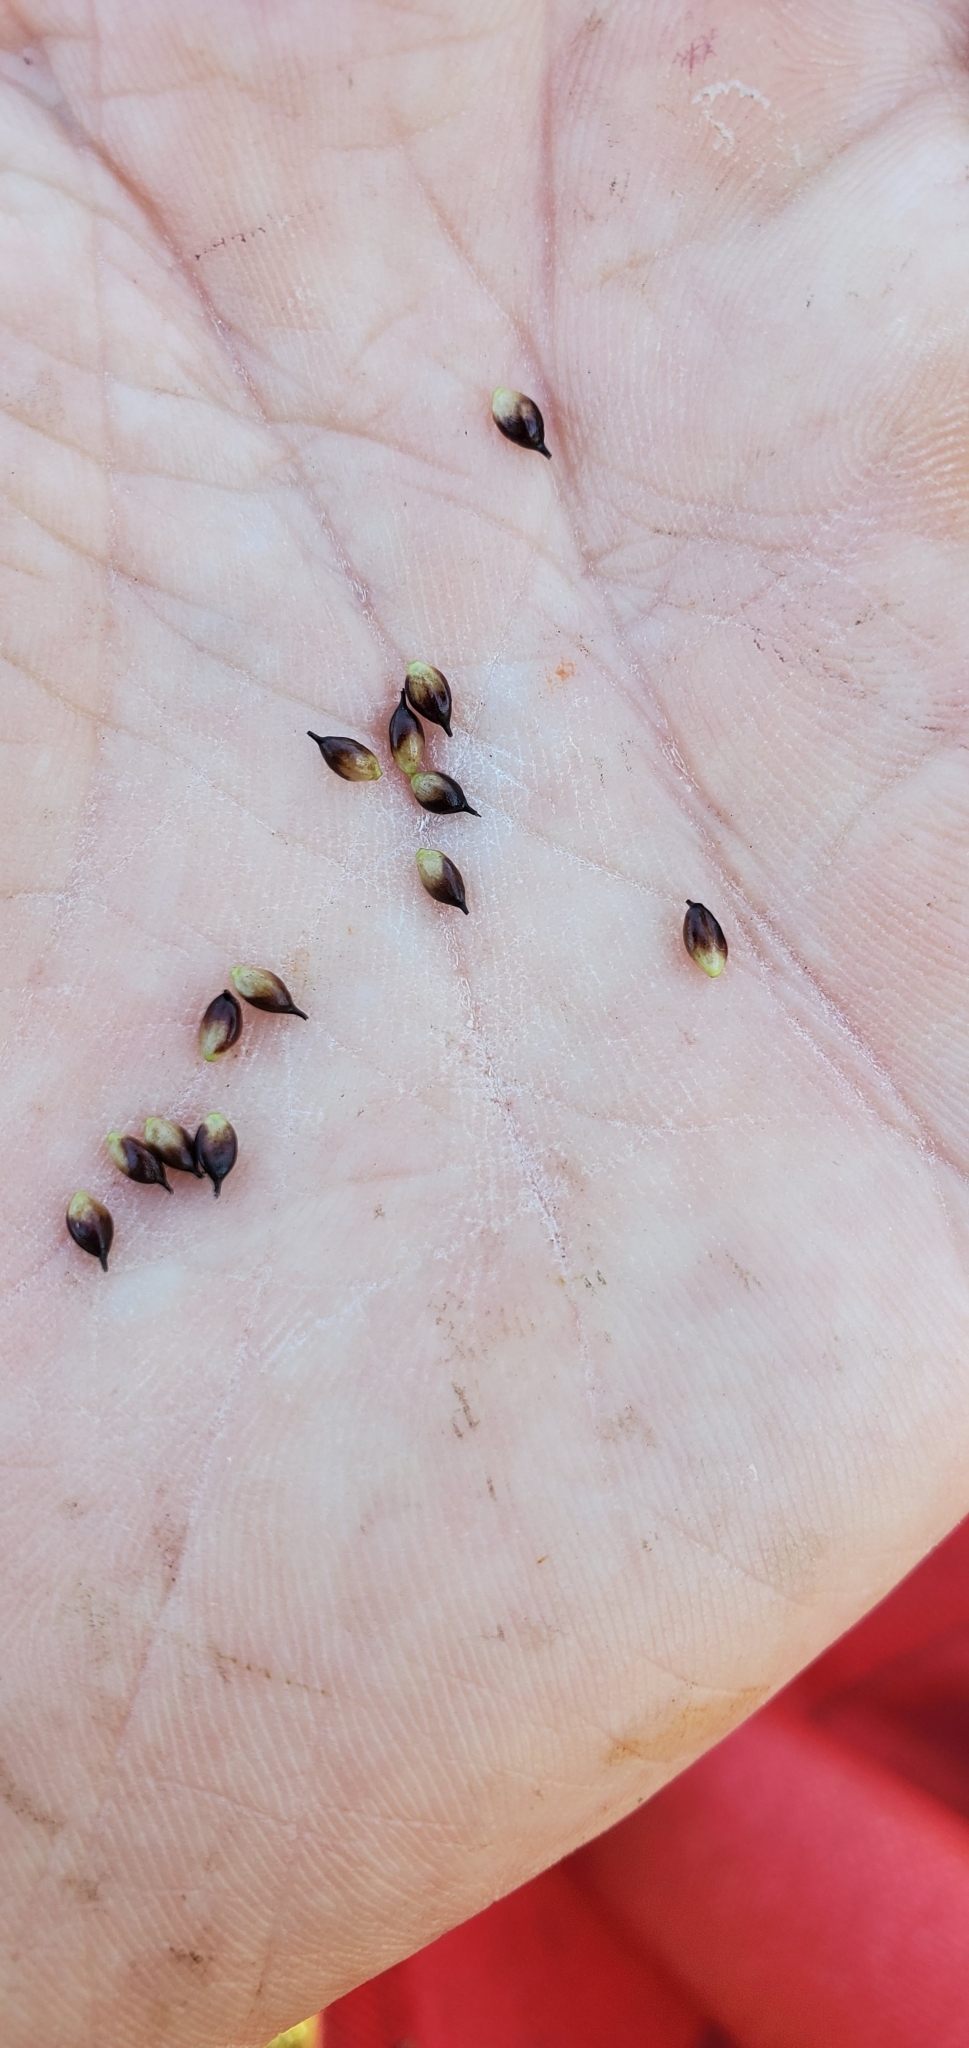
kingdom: Plantae
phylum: Tracheophyta
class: Liliopsida
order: Poales
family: Cyperaceae
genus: Carex
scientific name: Carex saxatilis
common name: Russet sedge
